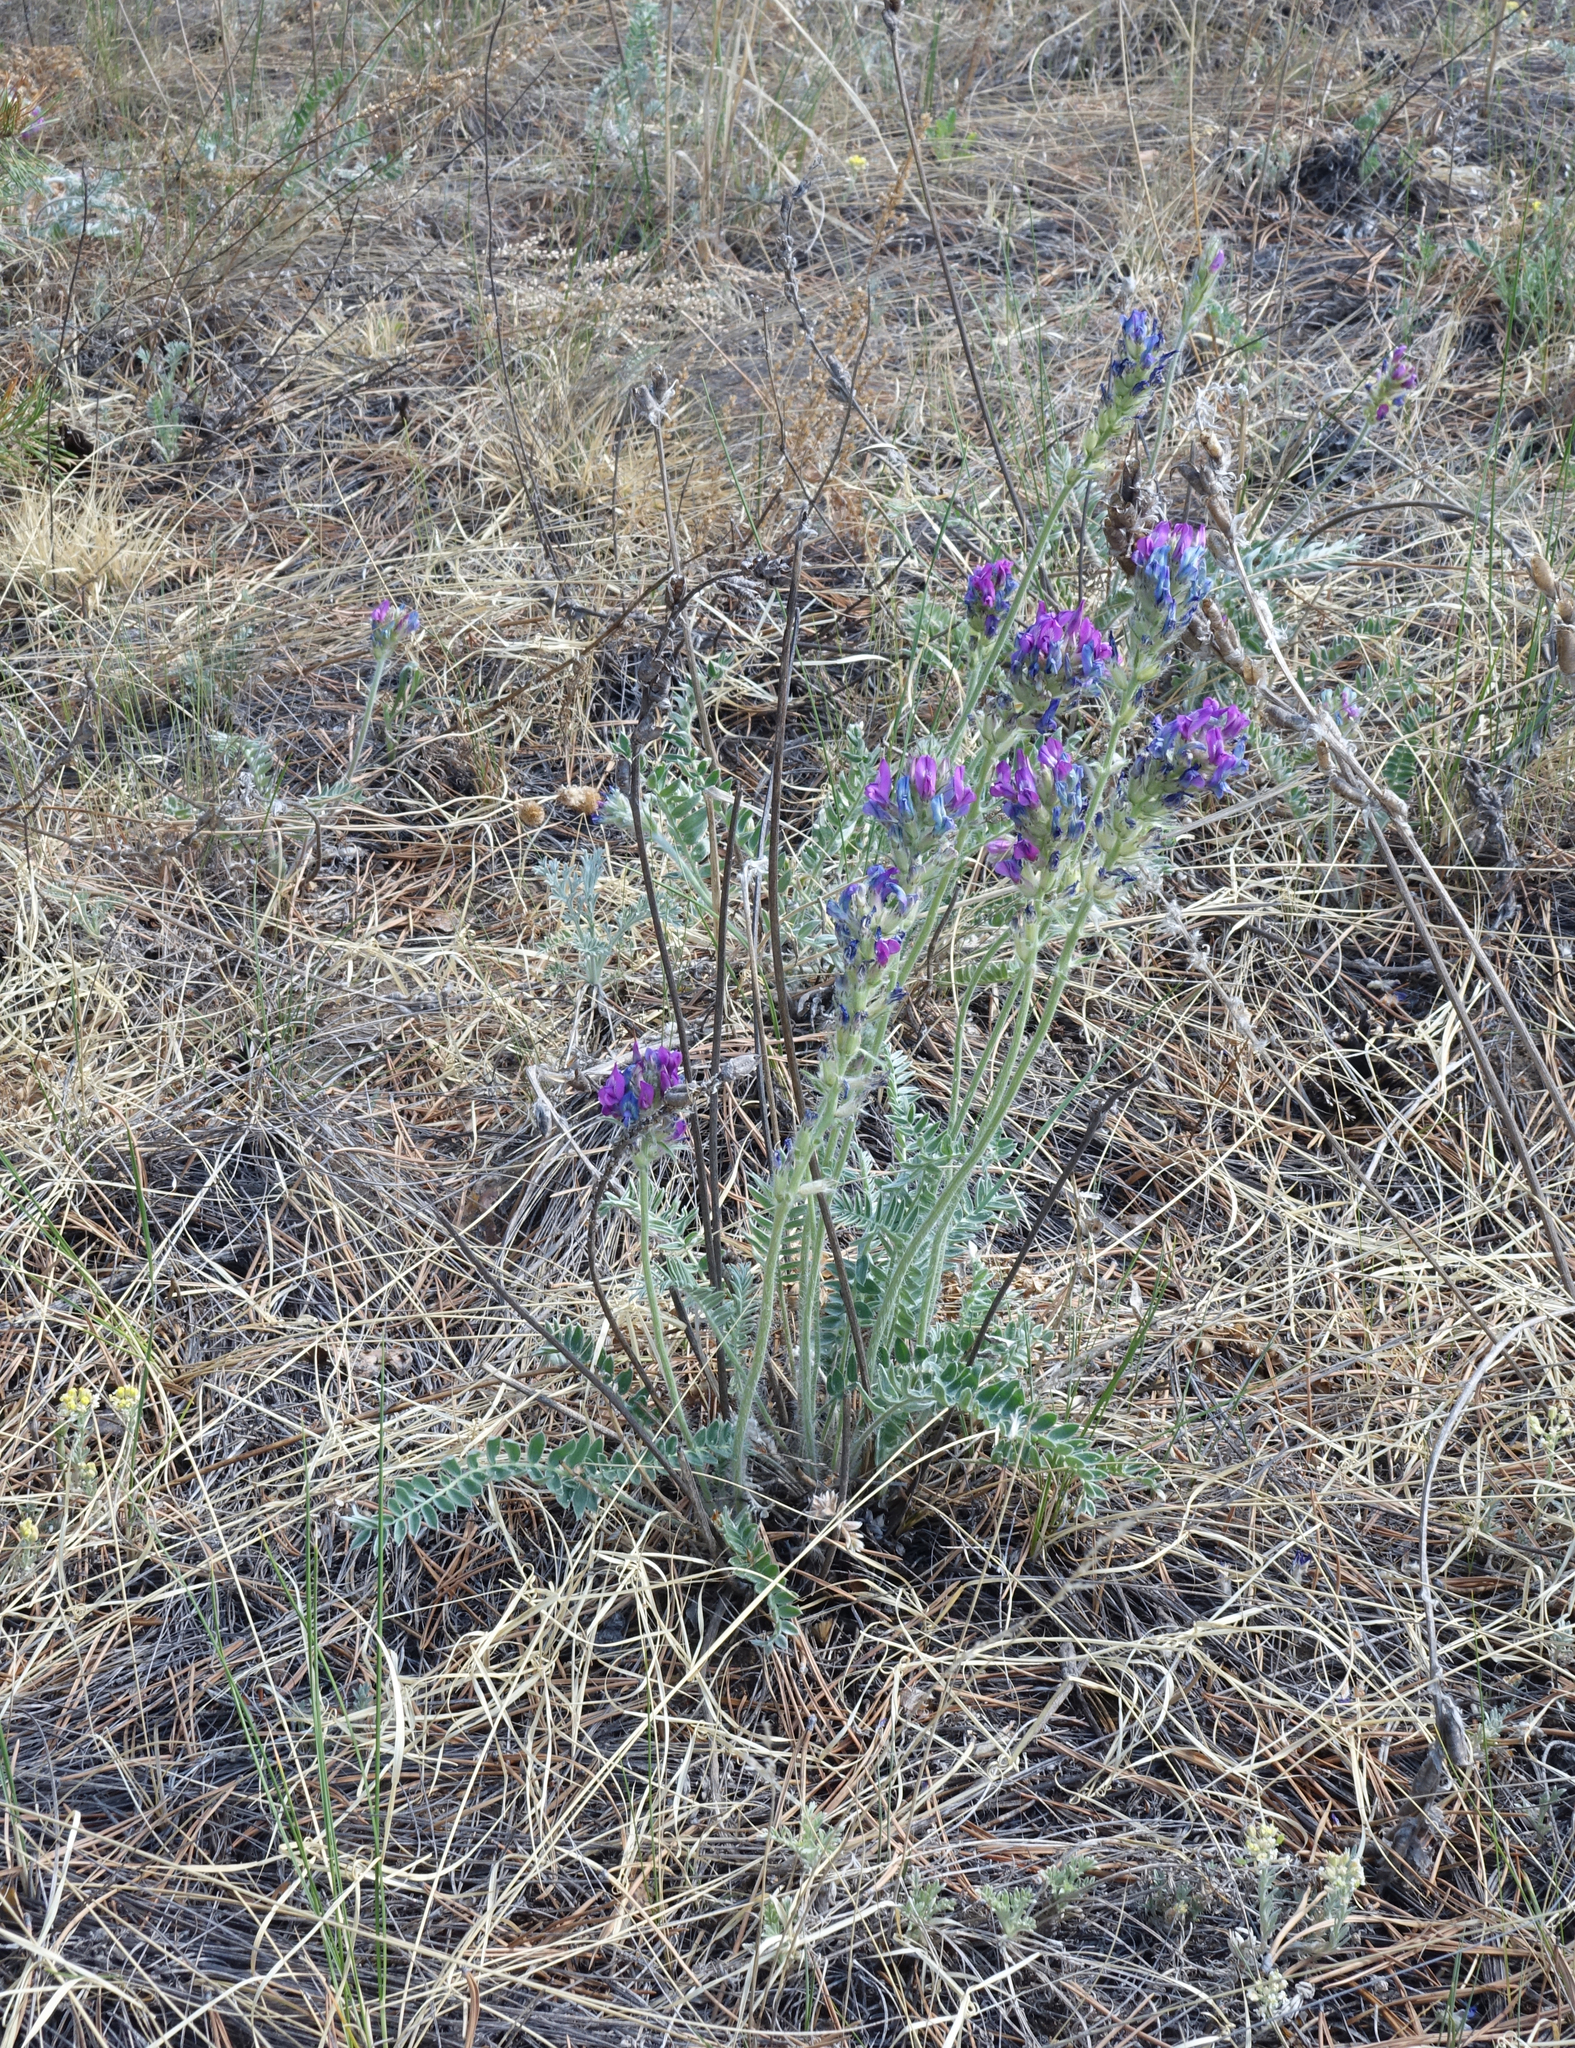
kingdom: Plantae
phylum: Tracheophyta
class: Magnoliopsida
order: Fabales
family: Fabaceae
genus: Oxytropis
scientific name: Oxytropis strobilacea
